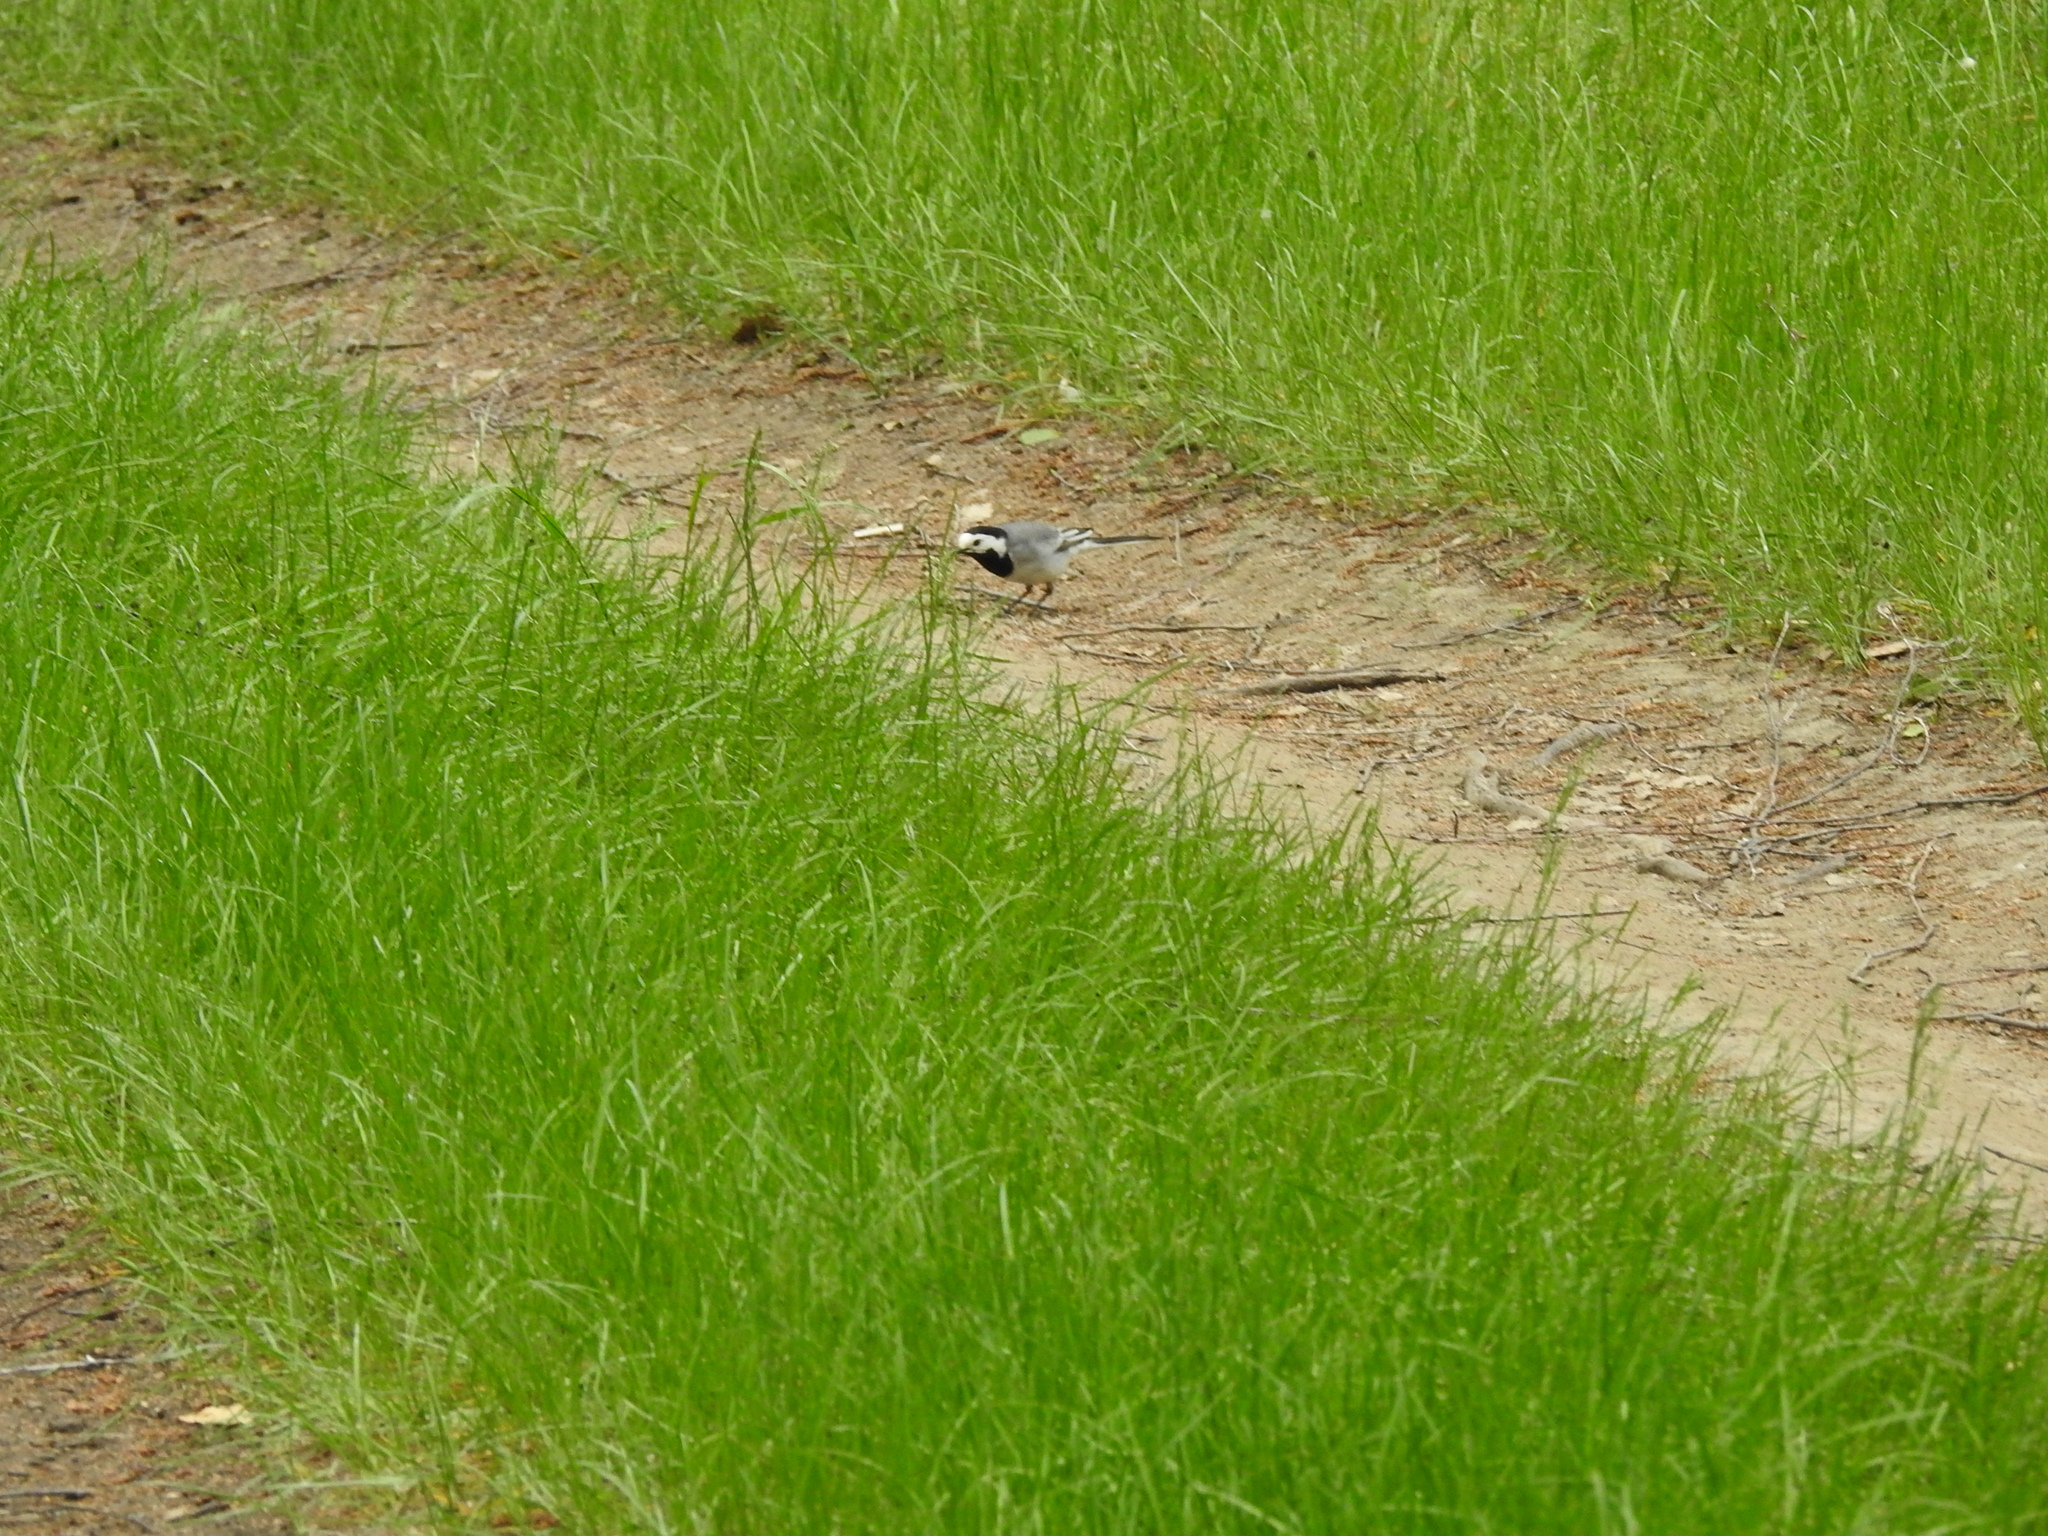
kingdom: Animalia
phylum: Chordata
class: Aves
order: Passeriformes
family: Motacillidae
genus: Motacilla
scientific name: Motacilla alba
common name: White wagtail
